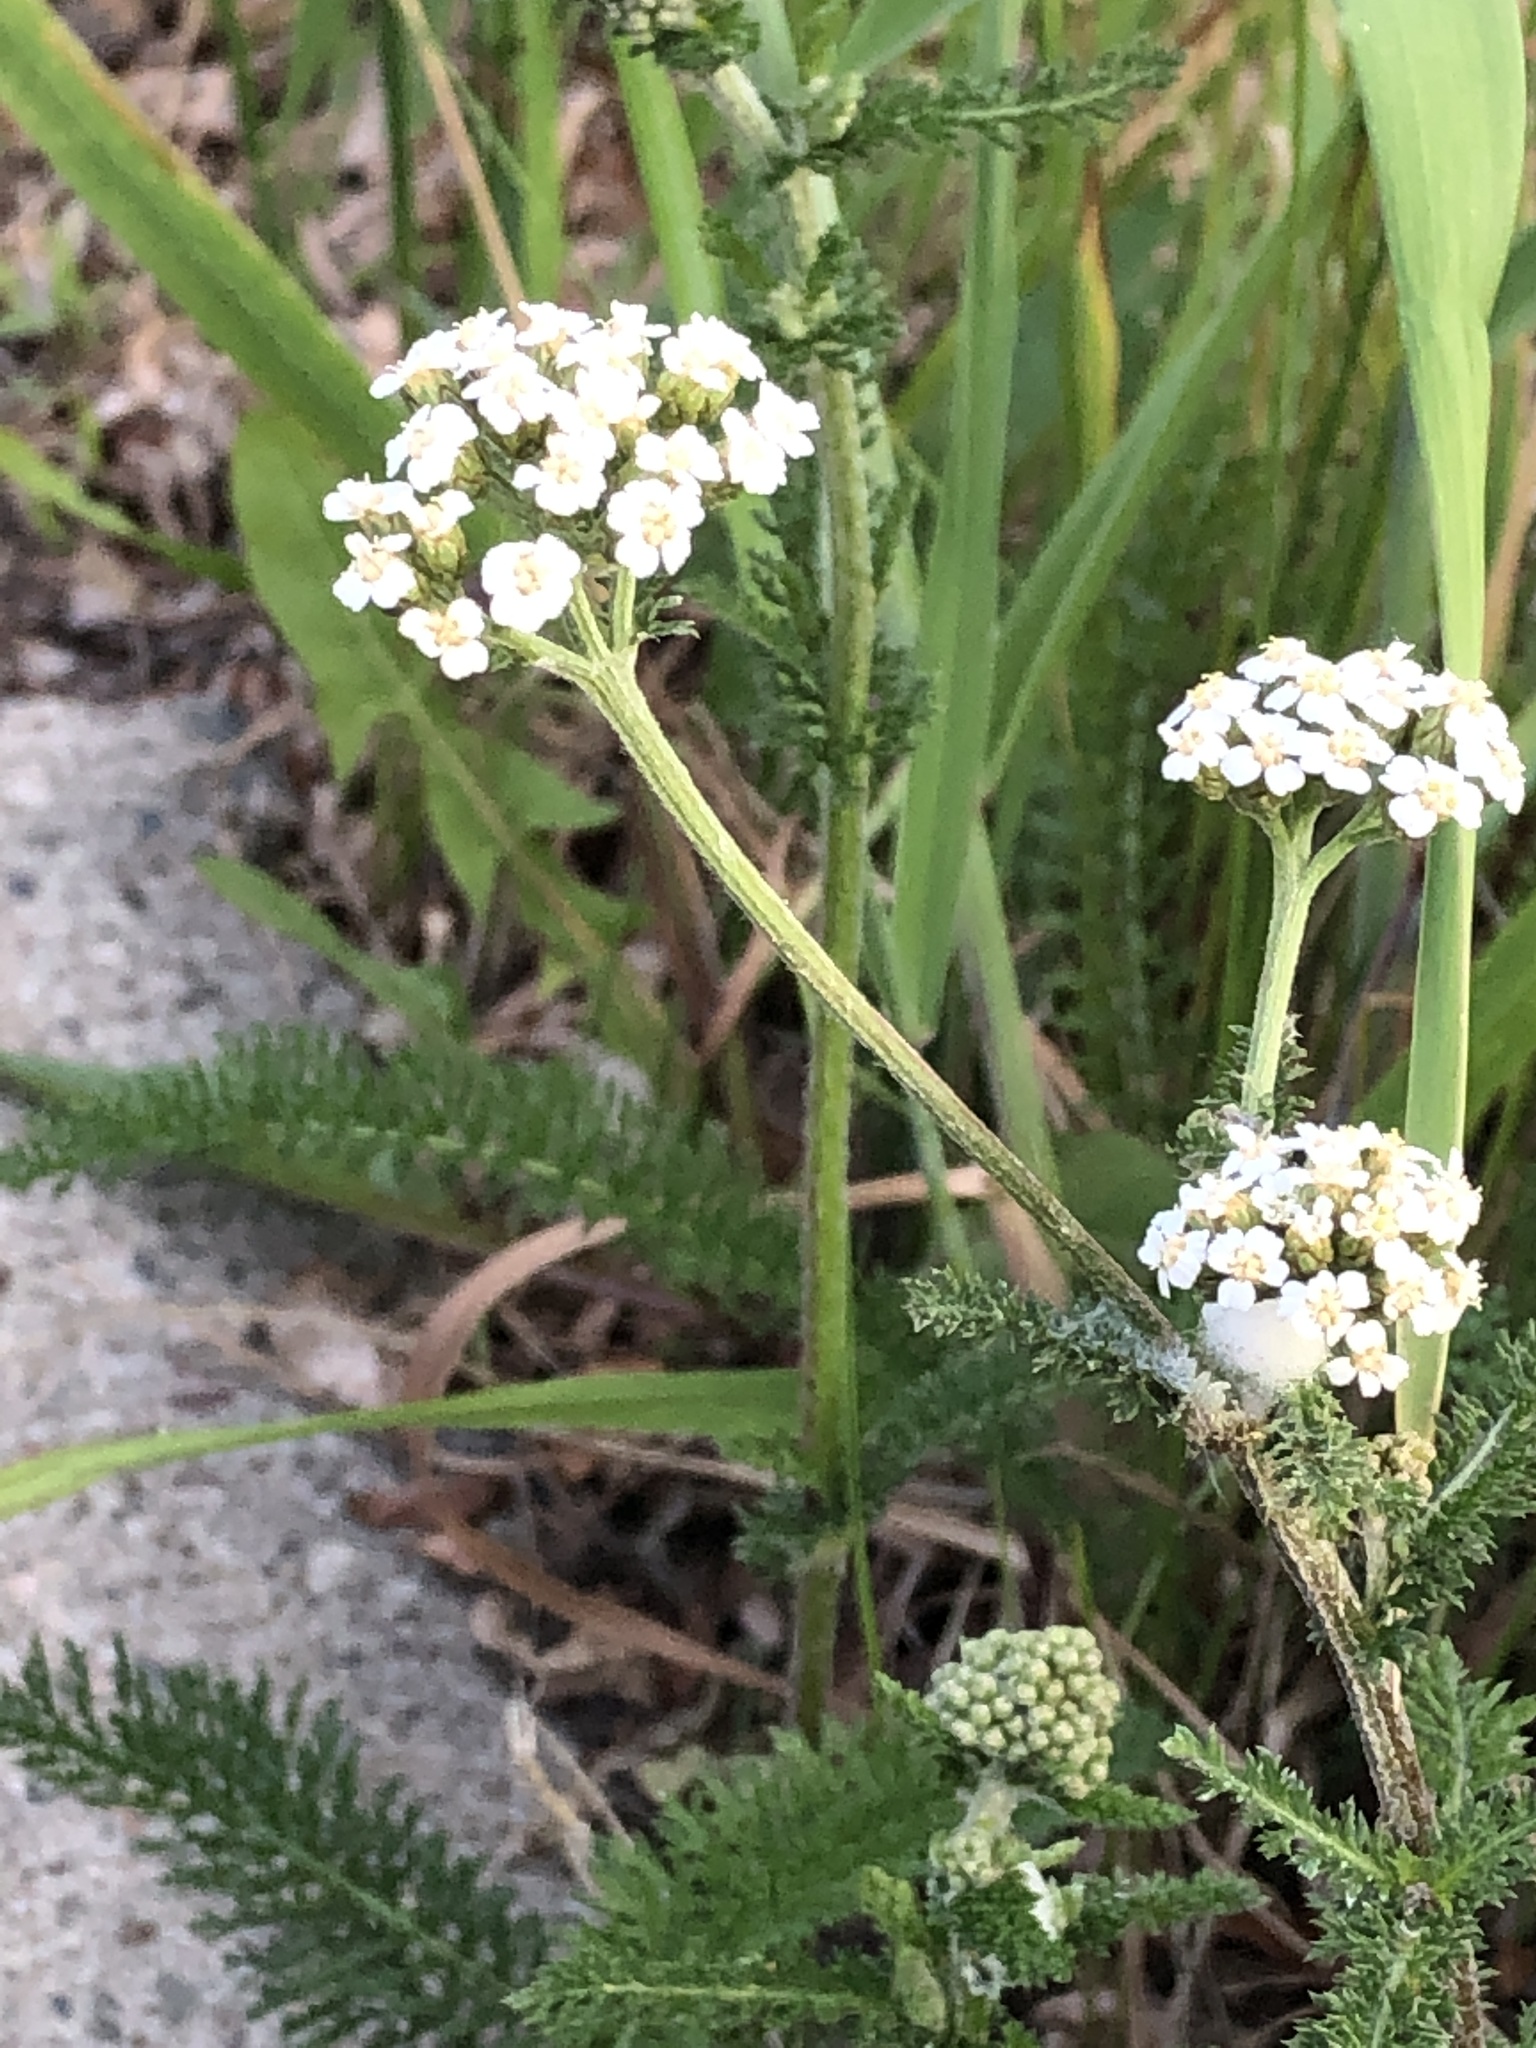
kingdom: Plantae
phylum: Tracheophyta
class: Magnoliopsida
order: Asterales
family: Asteraceae
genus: Achillea
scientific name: Achillea millefolium
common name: Yarrow
